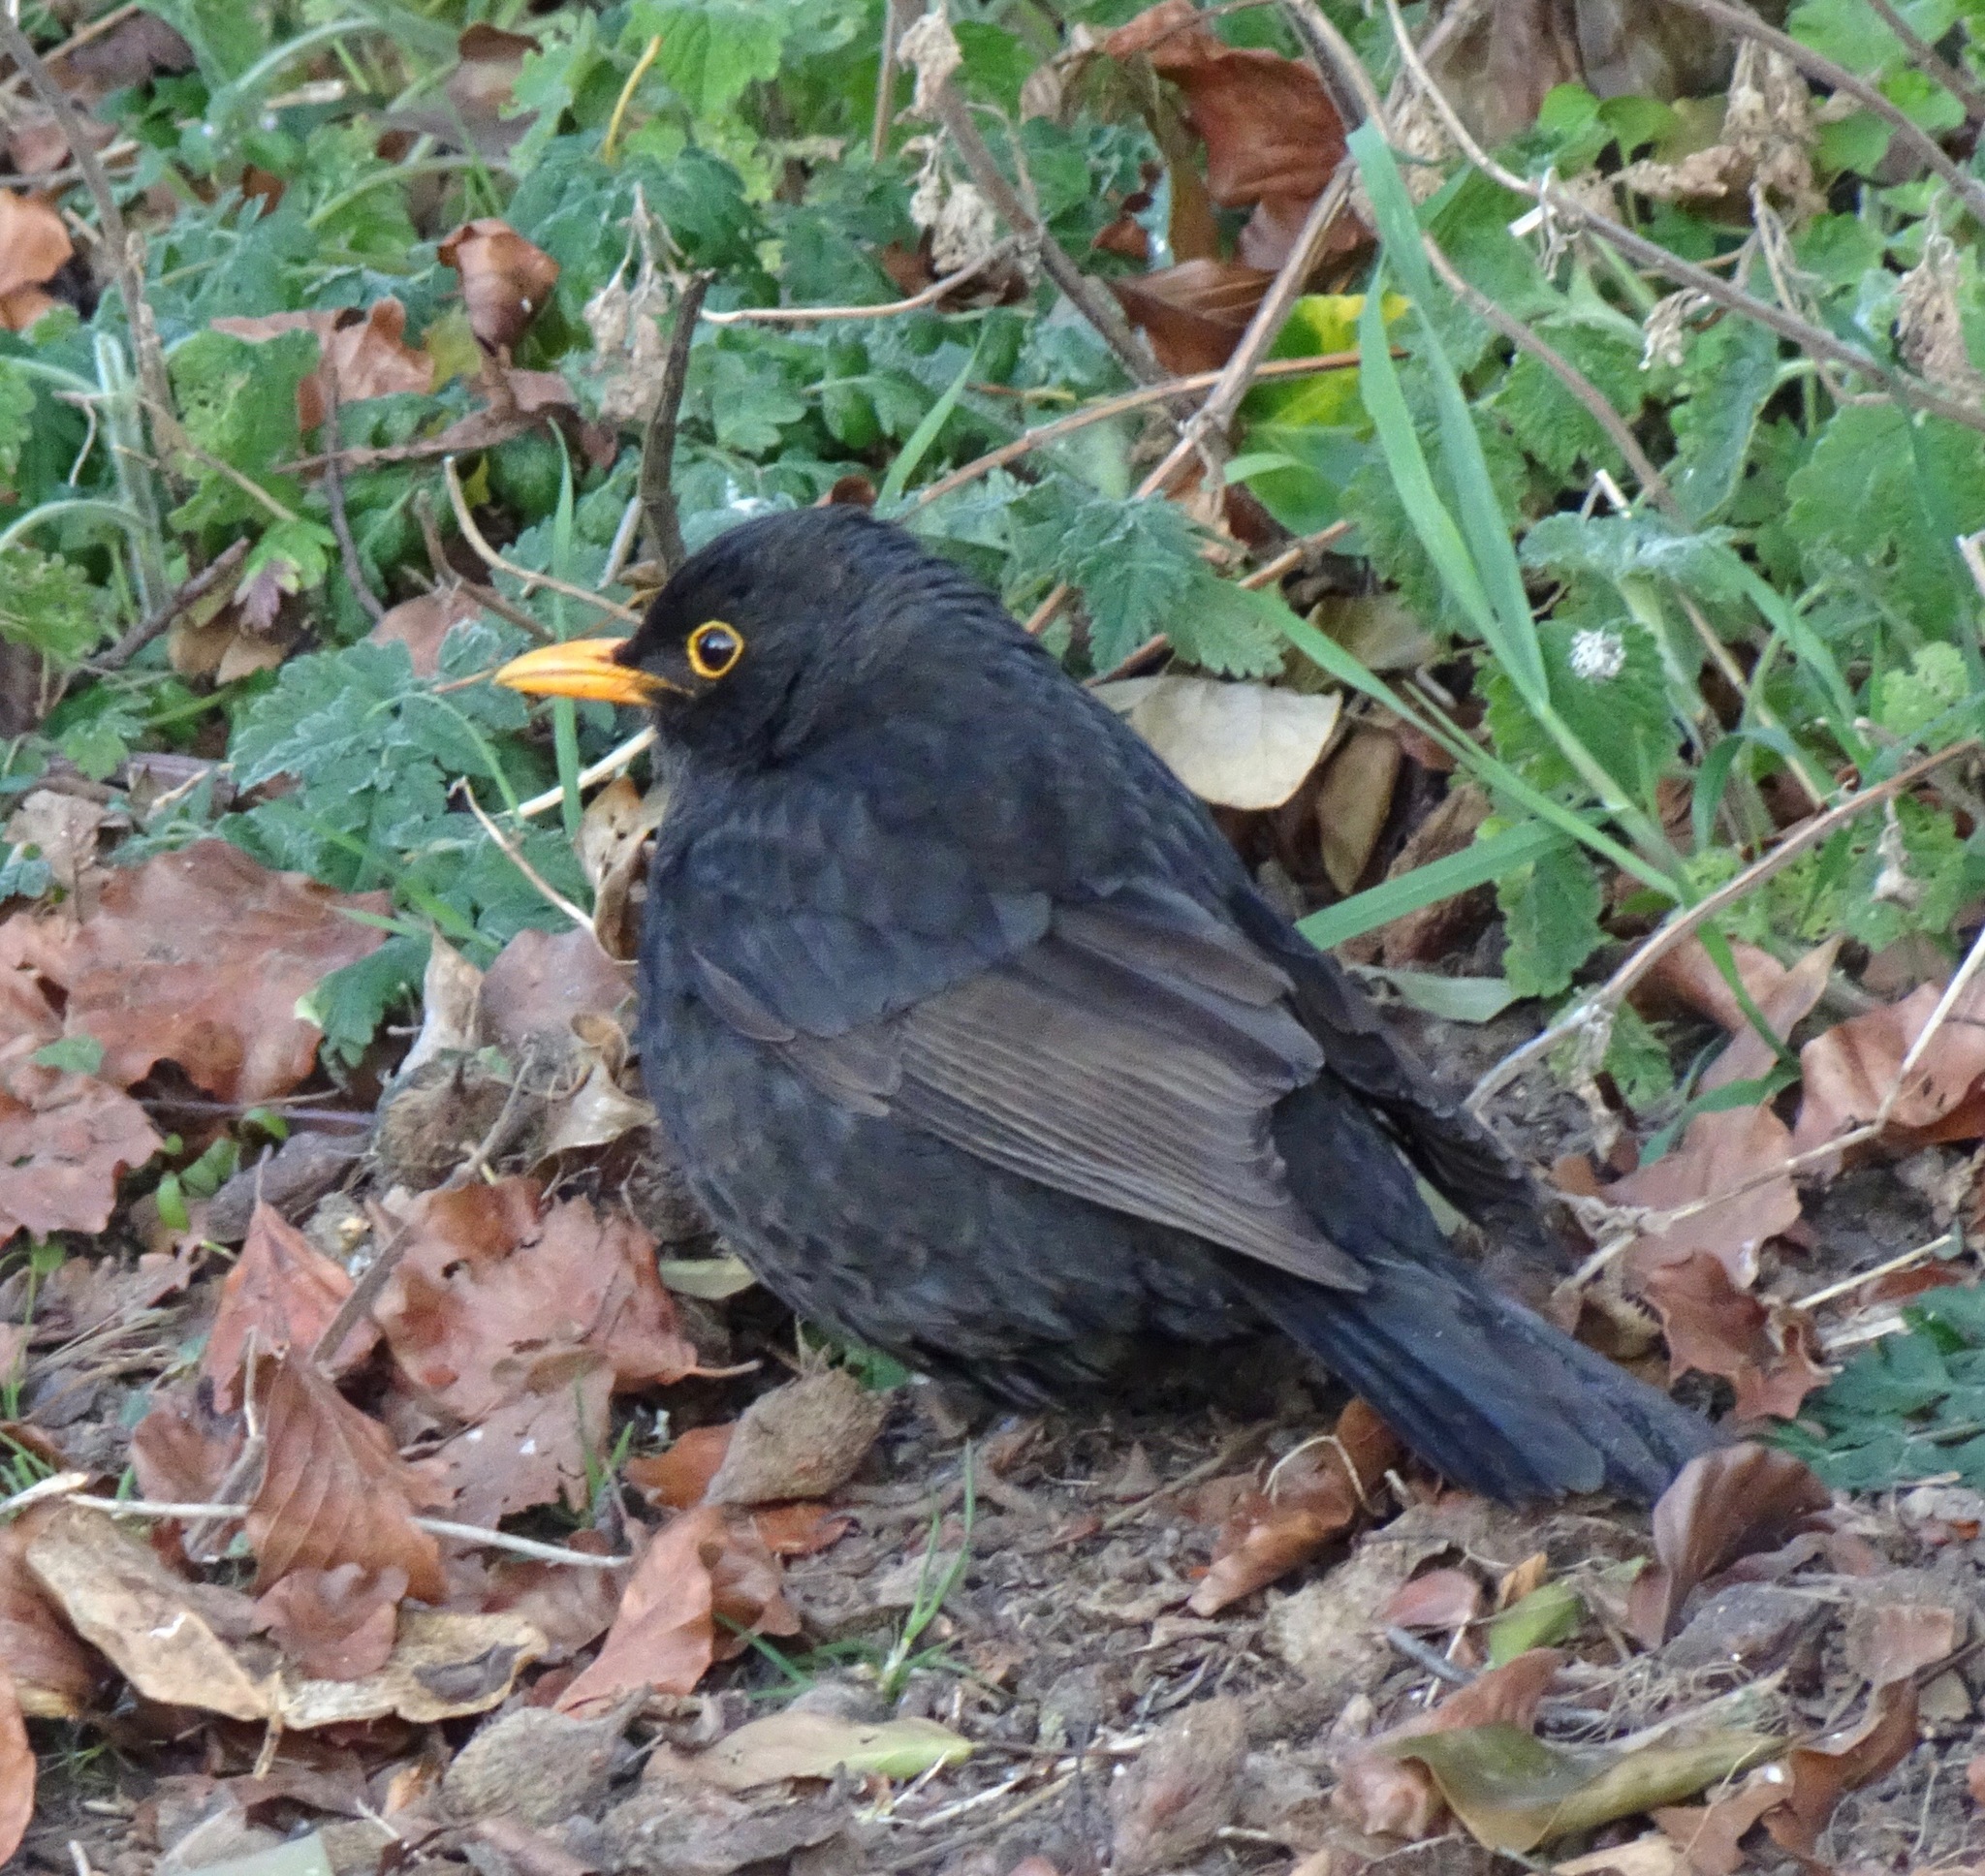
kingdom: Animalia
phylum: Chordata
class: Aves
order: Passeriformes
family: Turdidae
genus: Turdus
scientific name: Turdus merula
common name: Common blackbird
